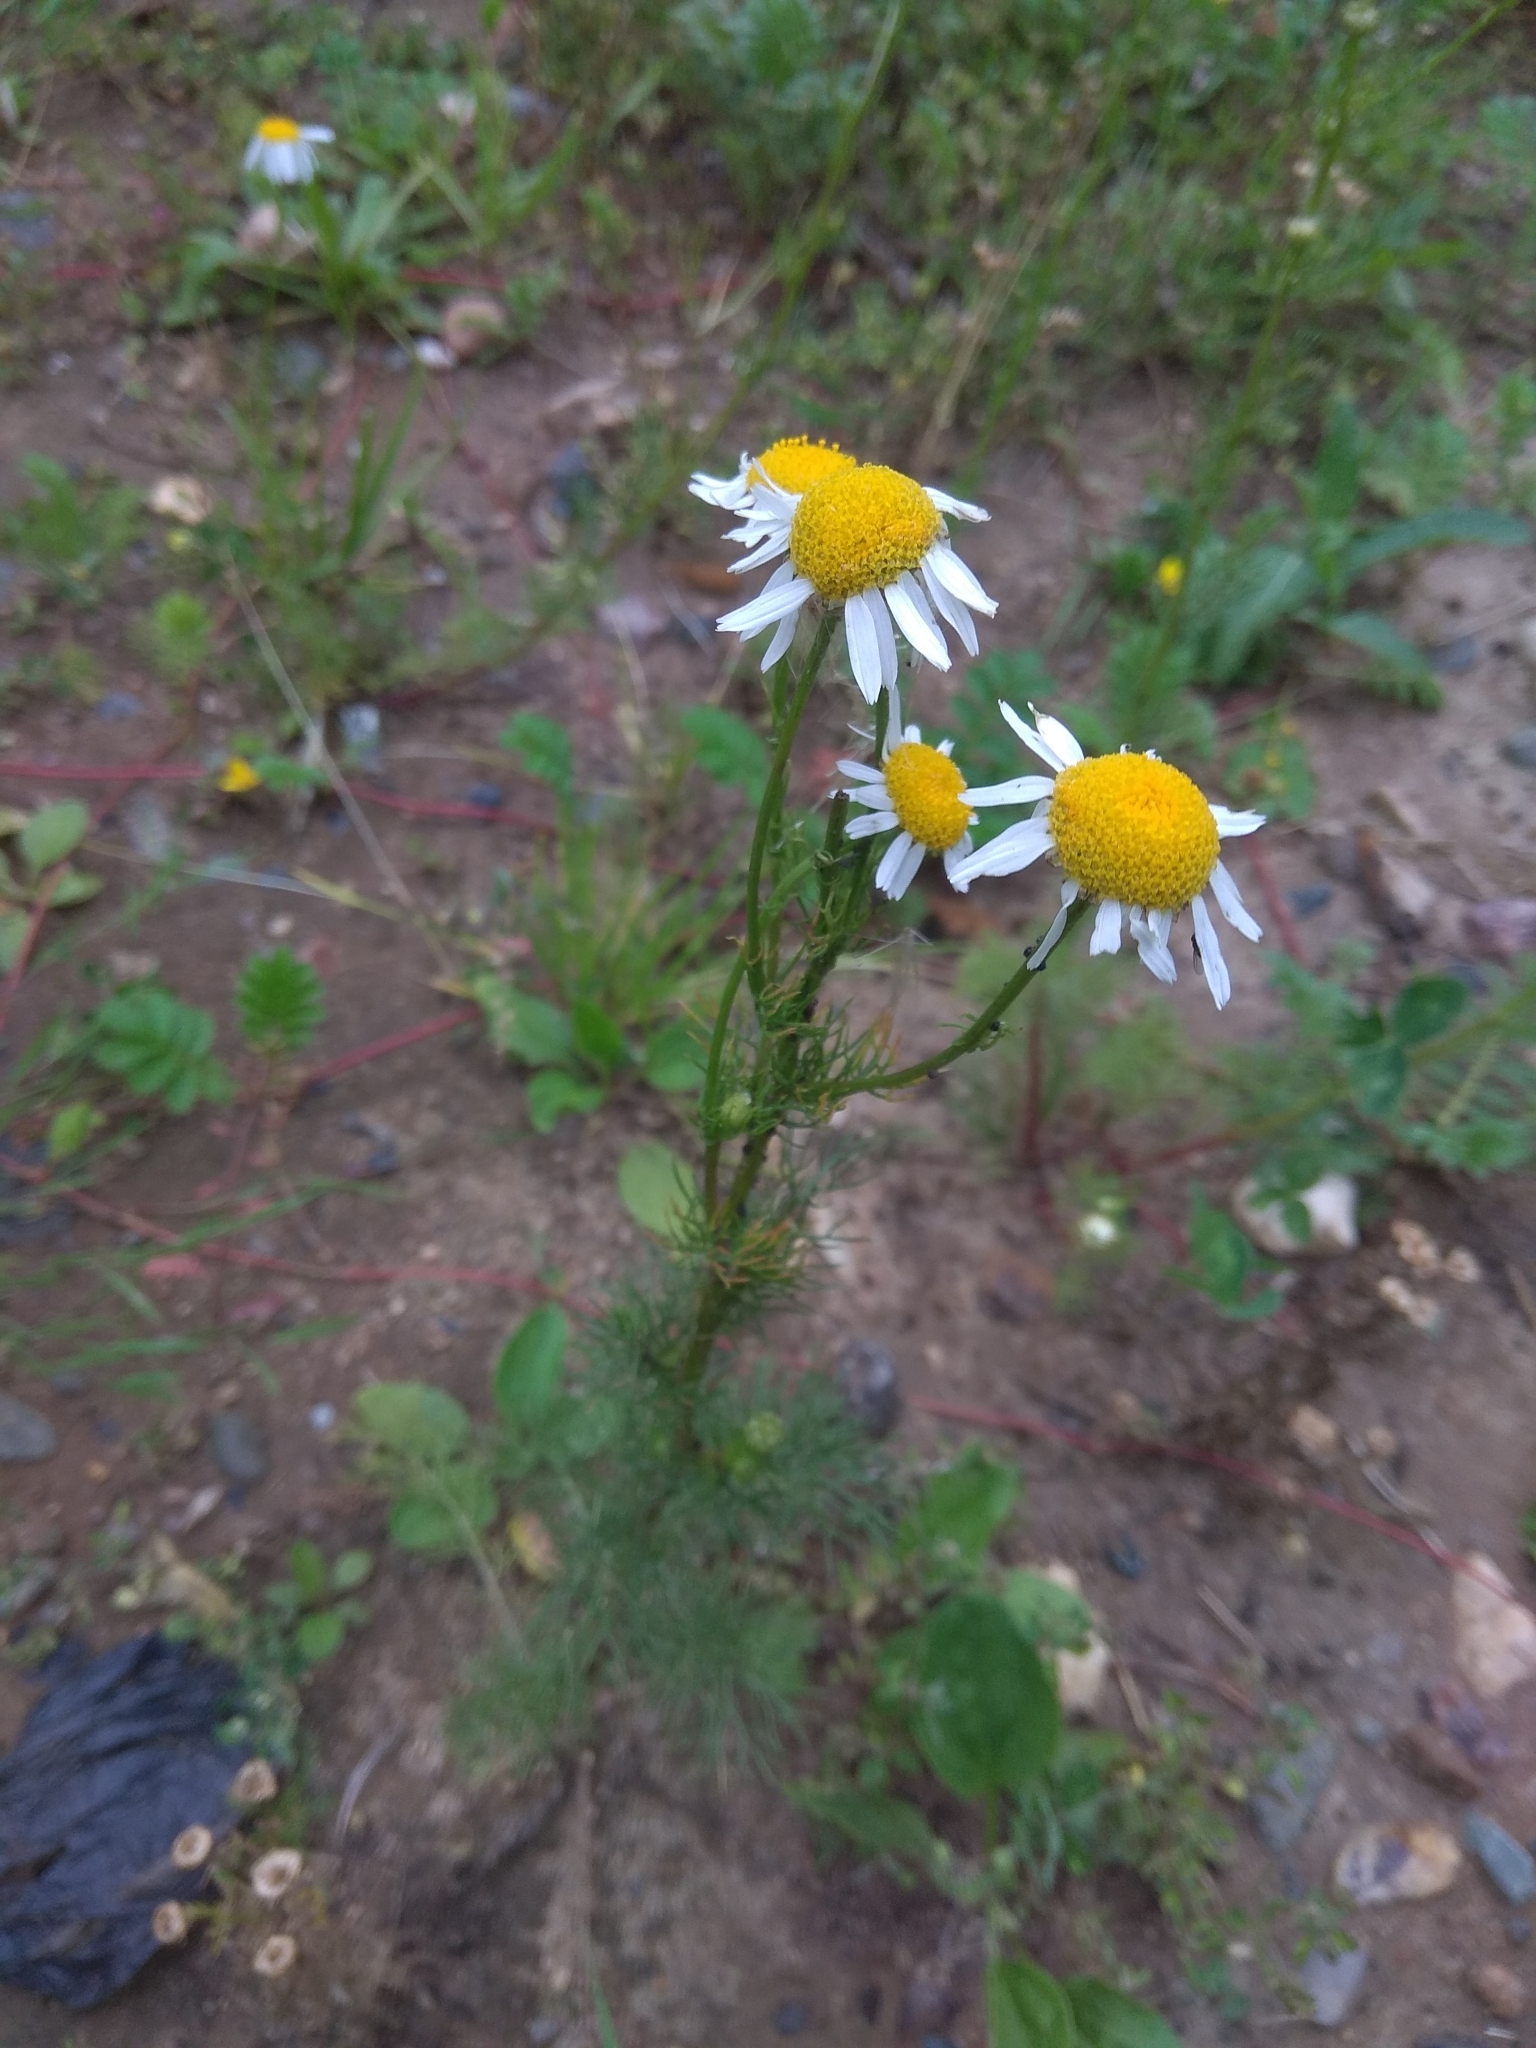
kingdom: Plantae
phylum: Tracheophyta
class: Magnoliopsida
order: Asterales
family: Asteraceae
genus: Tripleurospermum
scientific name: Tripleurospermum inodorum
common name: Scentless mayweed
